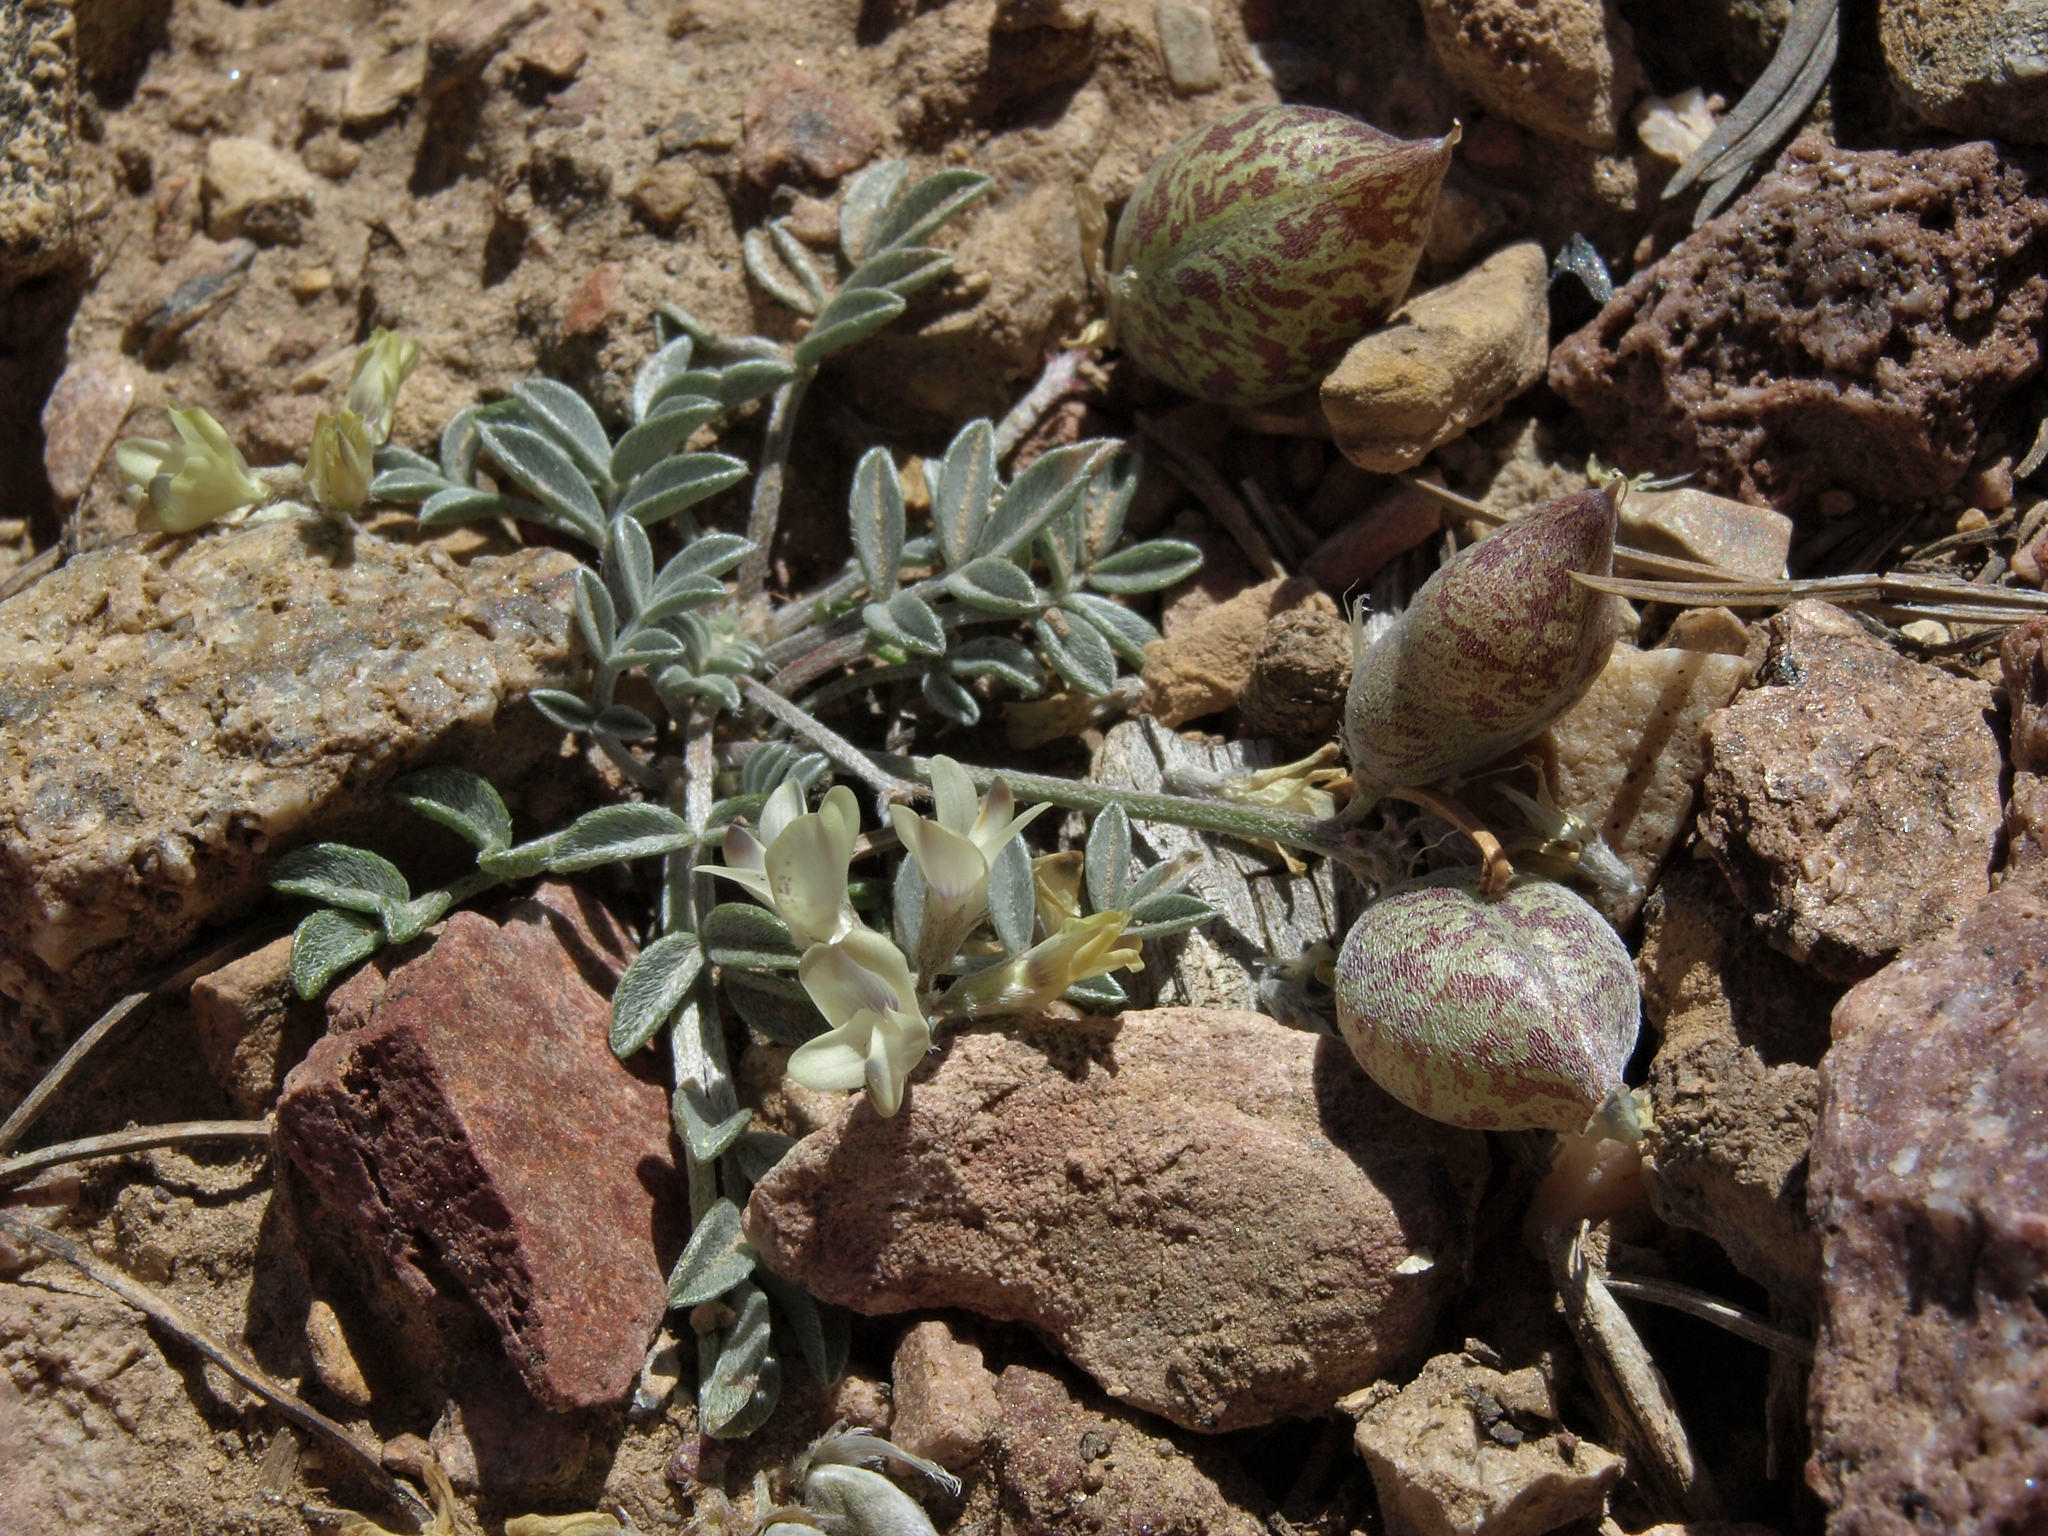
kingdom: Plantae
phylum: Tracheophyta
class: Magnoliopsida
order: Fabales
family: Fabaceae
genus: Astragalus
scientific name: Astragalus platytropis
